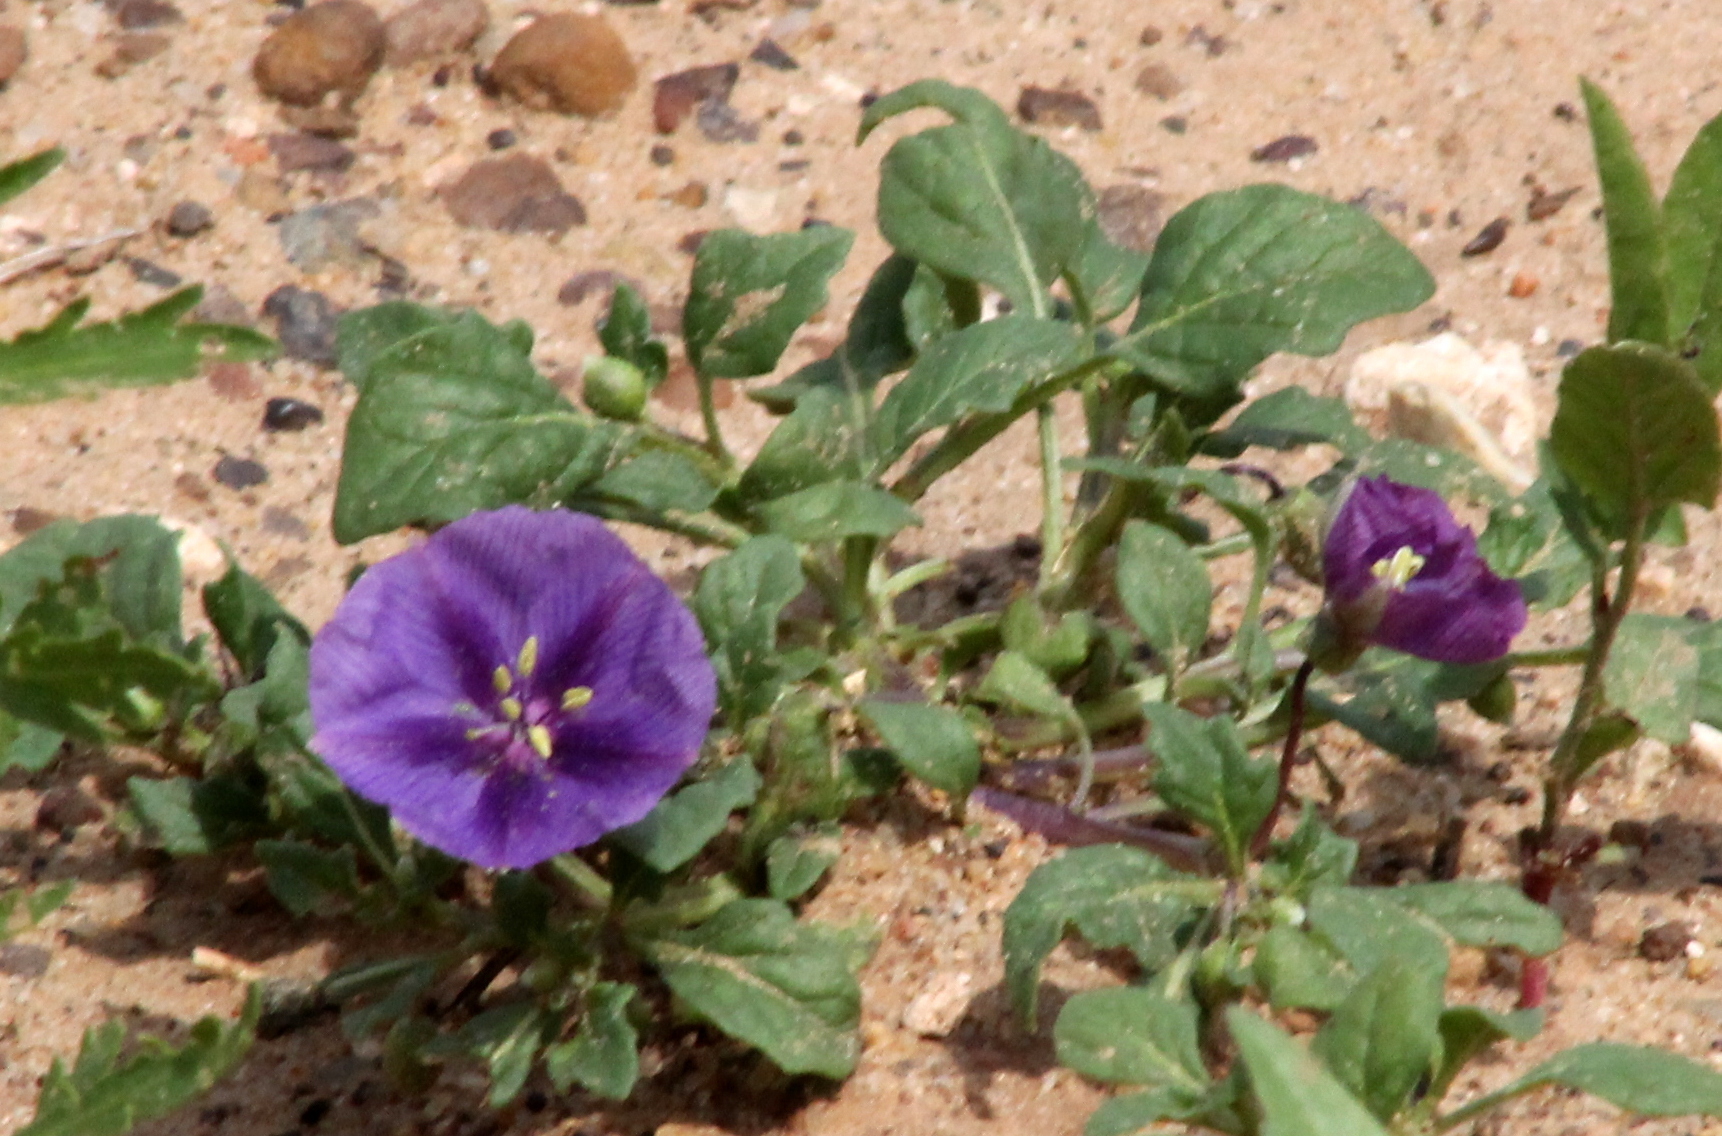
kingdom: Plantae
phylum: Tracheophyta
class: Magnoliopsida
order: Solanales
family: Solanaceae
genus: Quincula
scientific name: Quincula lobata
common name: Purple-ground-cherry
